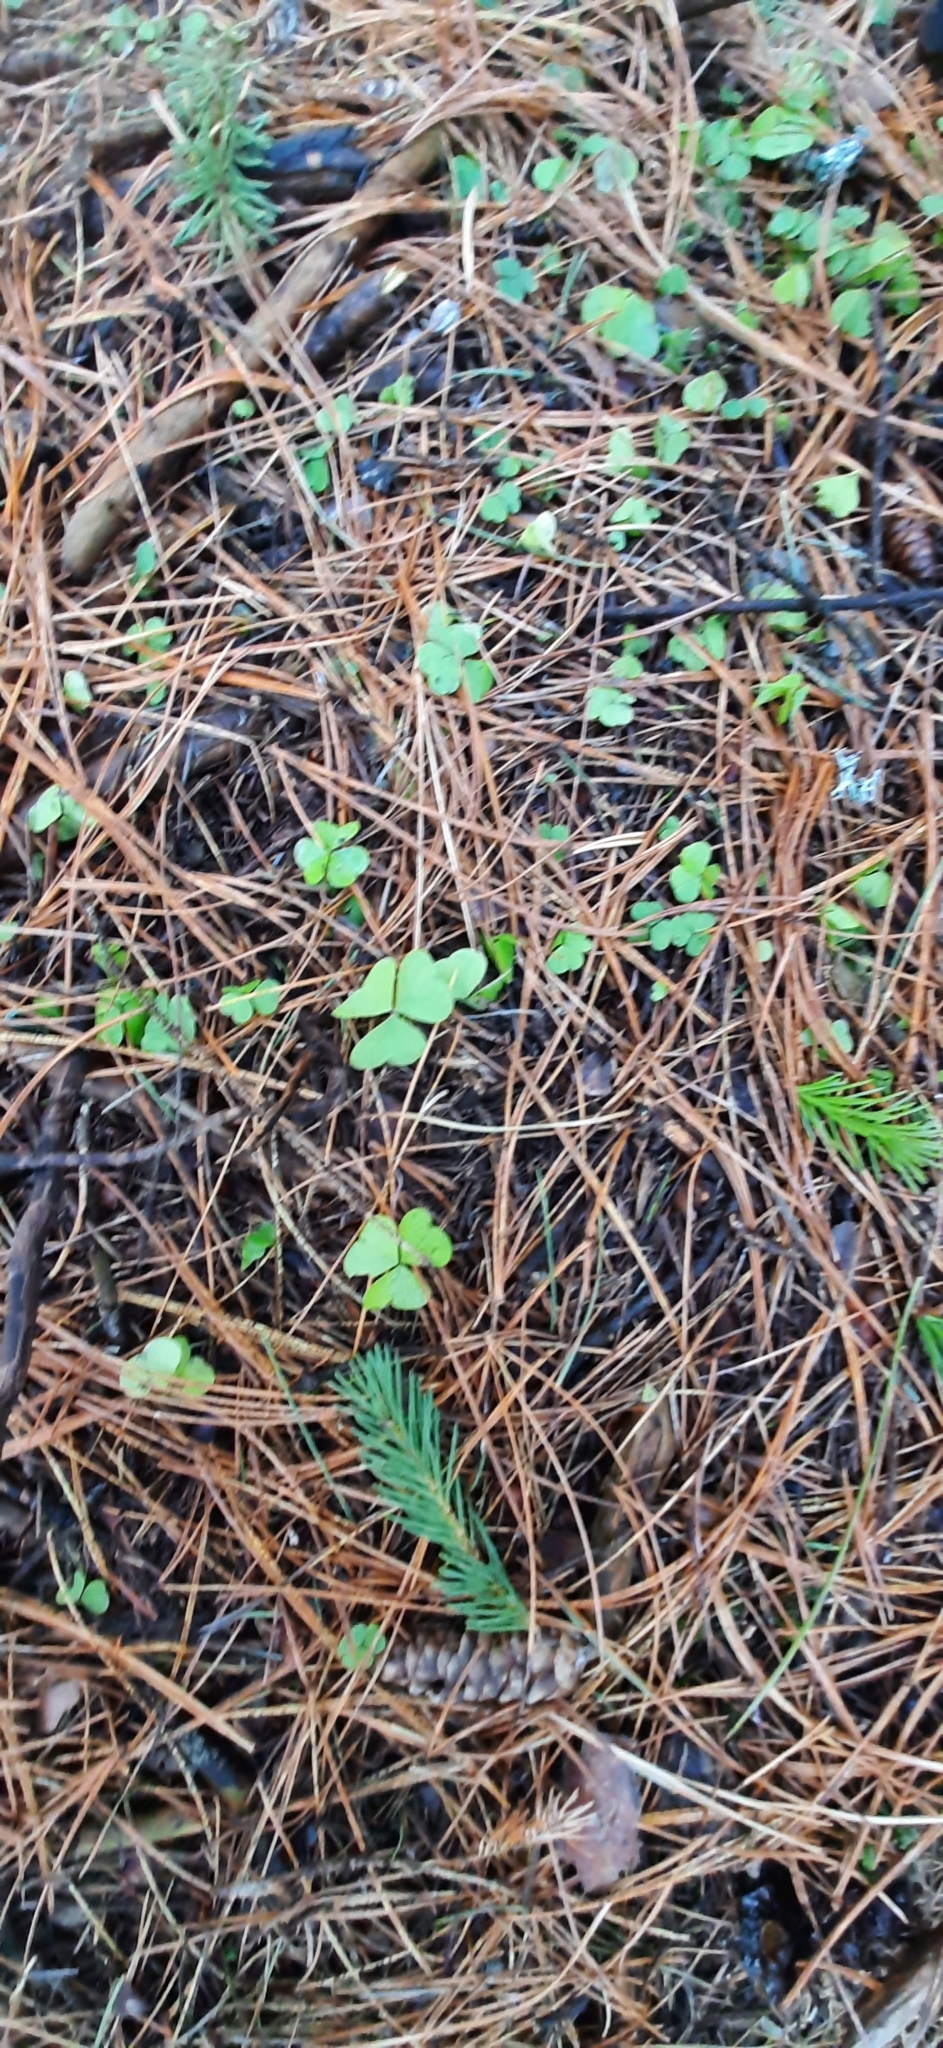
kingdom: Plantae
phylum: Tracheophyta
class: Magnoliopsida
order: Oxalidales
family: Oxalidaceae
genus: Oxalis
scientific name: Oxalis acetosella
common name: Wood-sorrel
